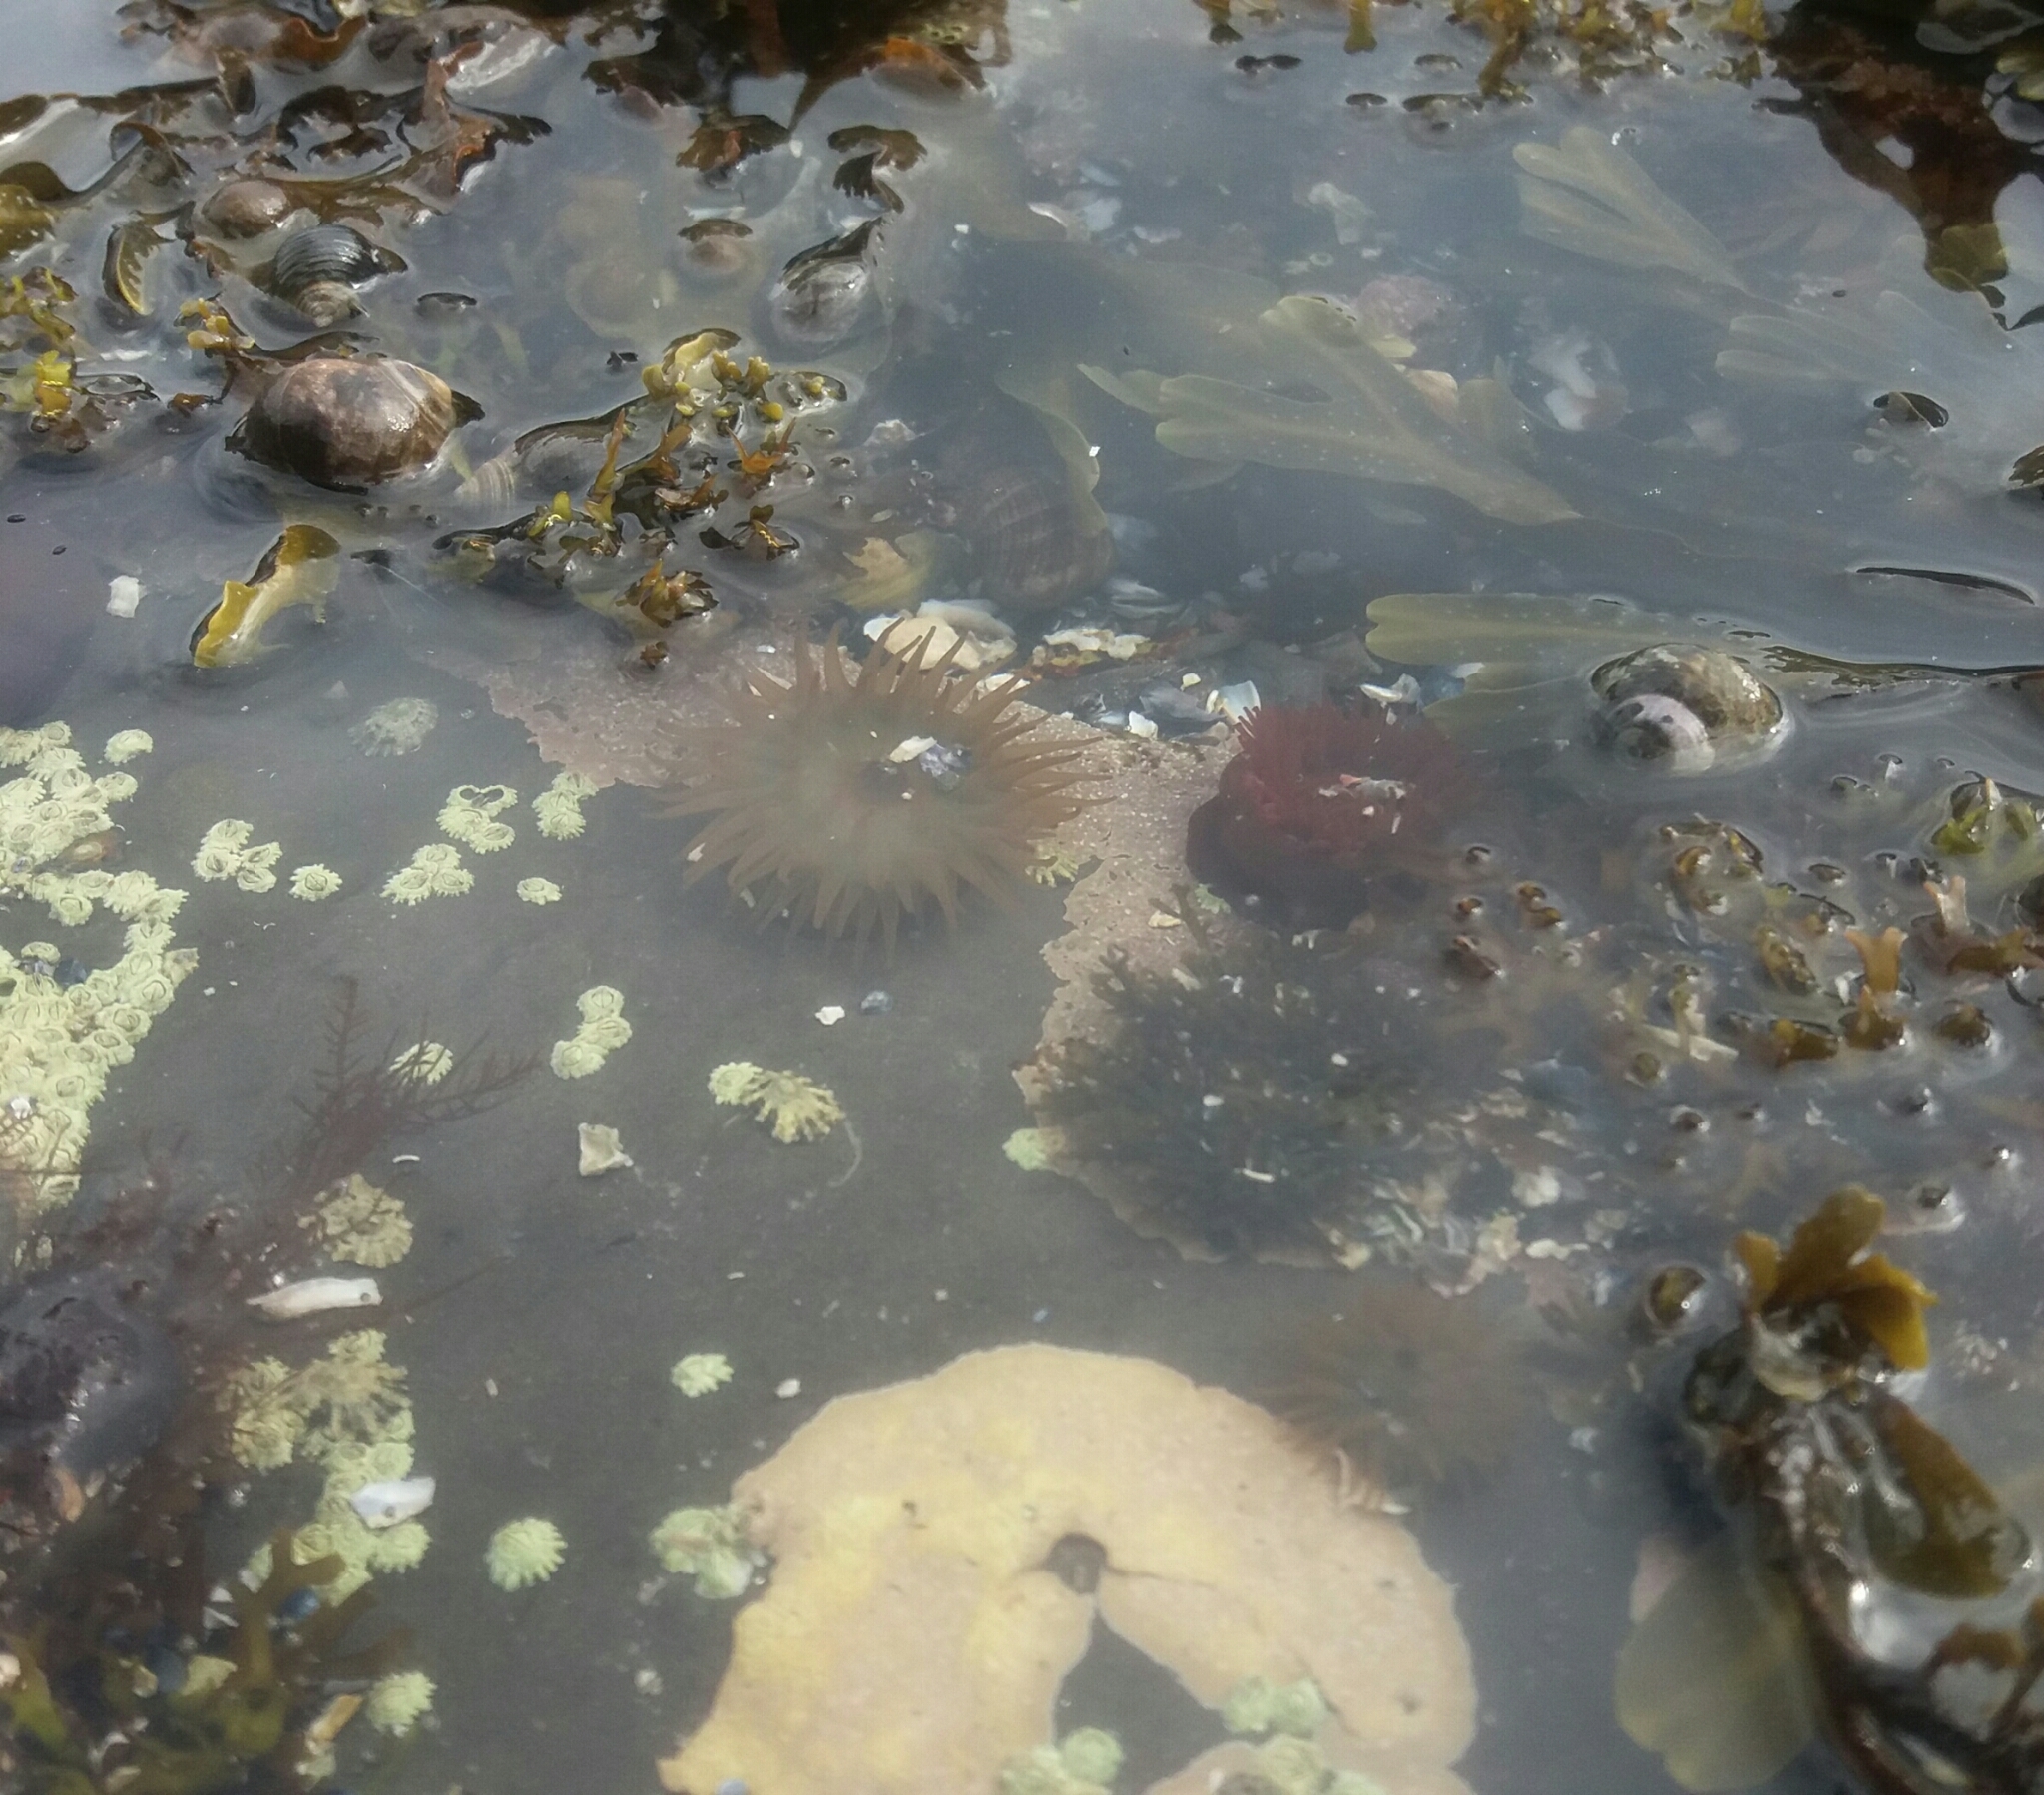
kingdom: Animalia
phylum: Cnidaria
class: Anthozoa
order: Actiniaria
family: Actiniidae
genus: Actinia
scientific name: Actinia equina
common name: Beadlet anemone
